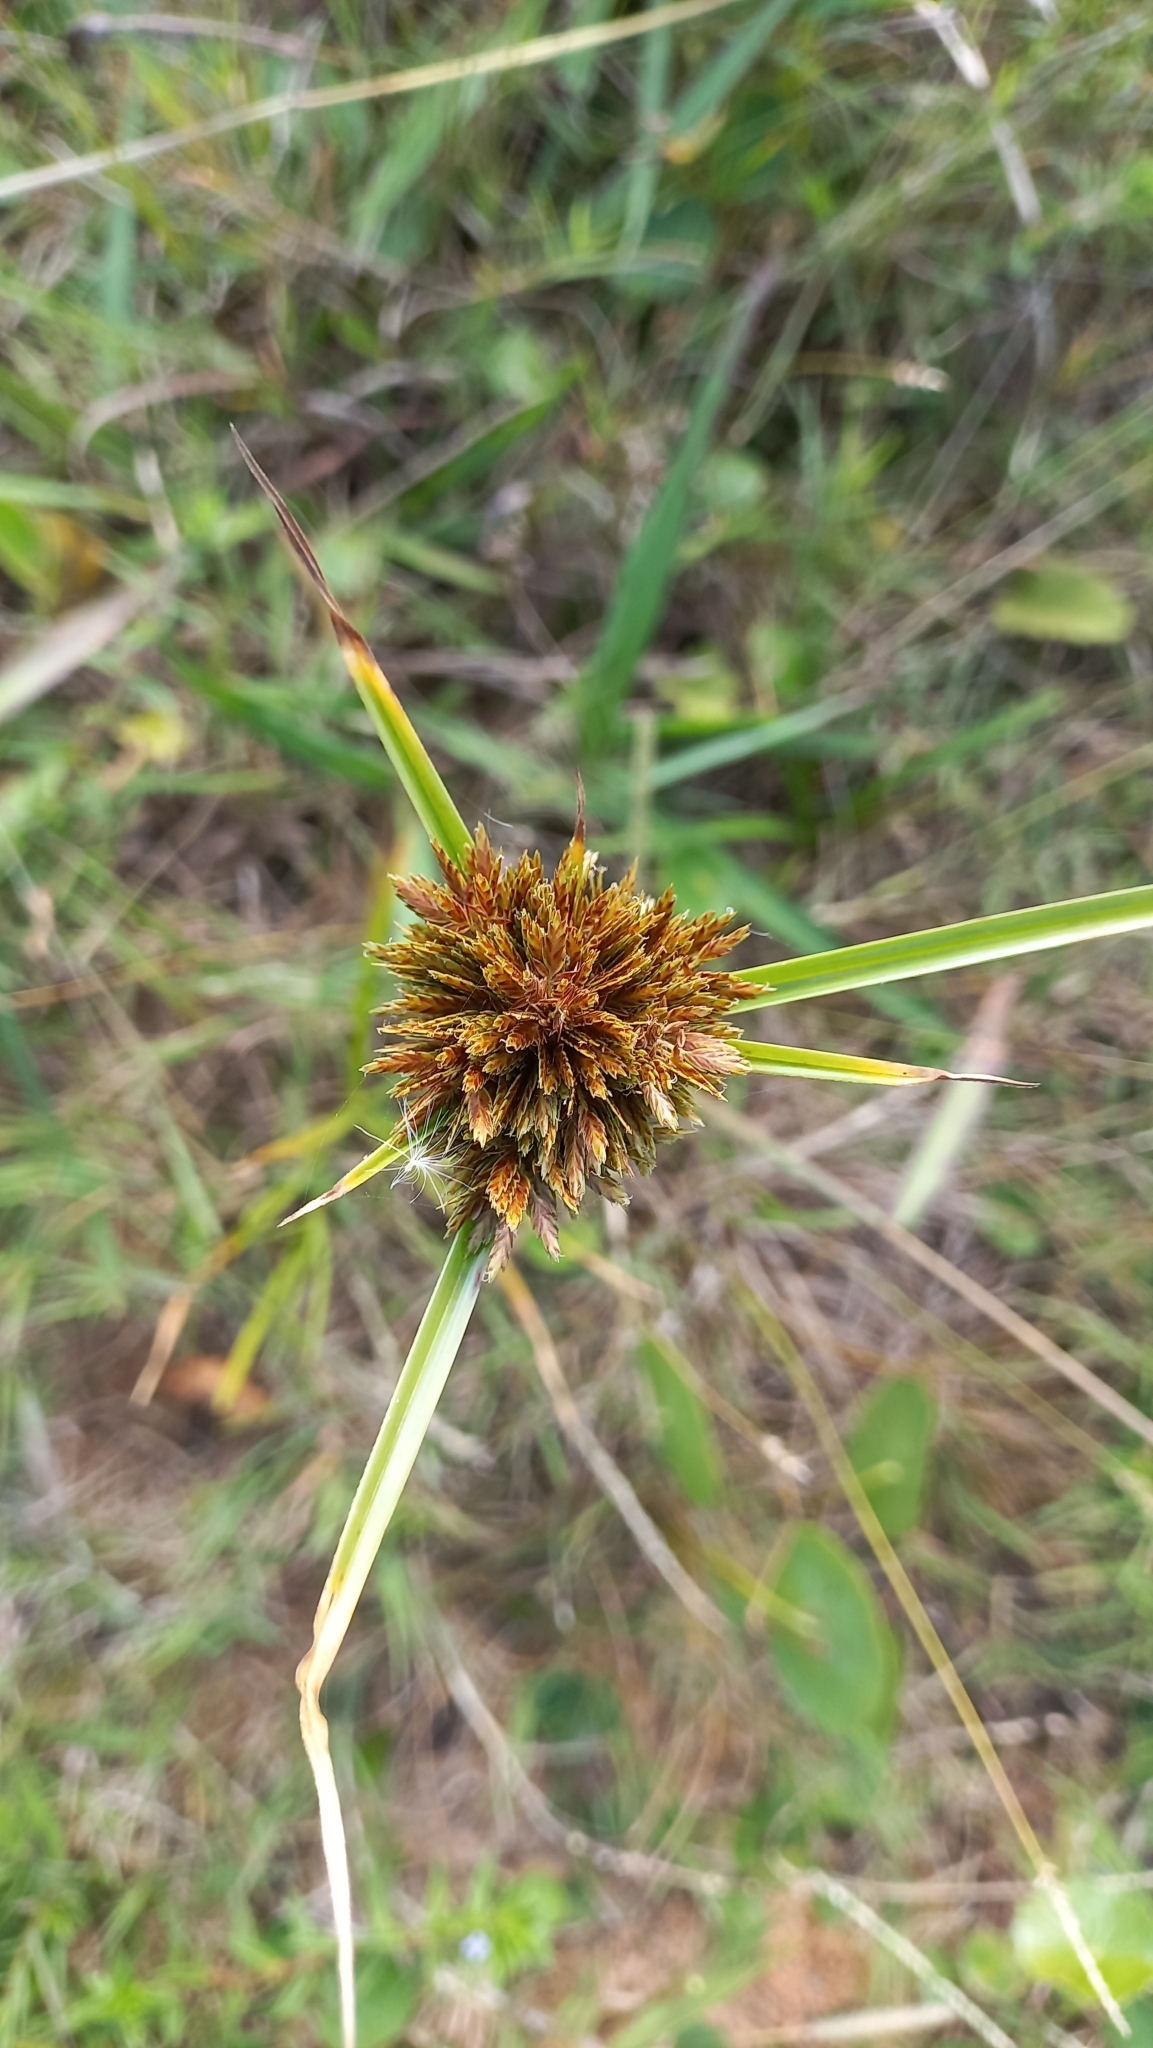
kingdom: Plantae
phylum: Tracheophyta
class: Liliopsida
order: Poales
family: Cyperaceae
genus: Cyperus
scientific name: Cyperus polystachyos
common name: Bunchy flat sedge
